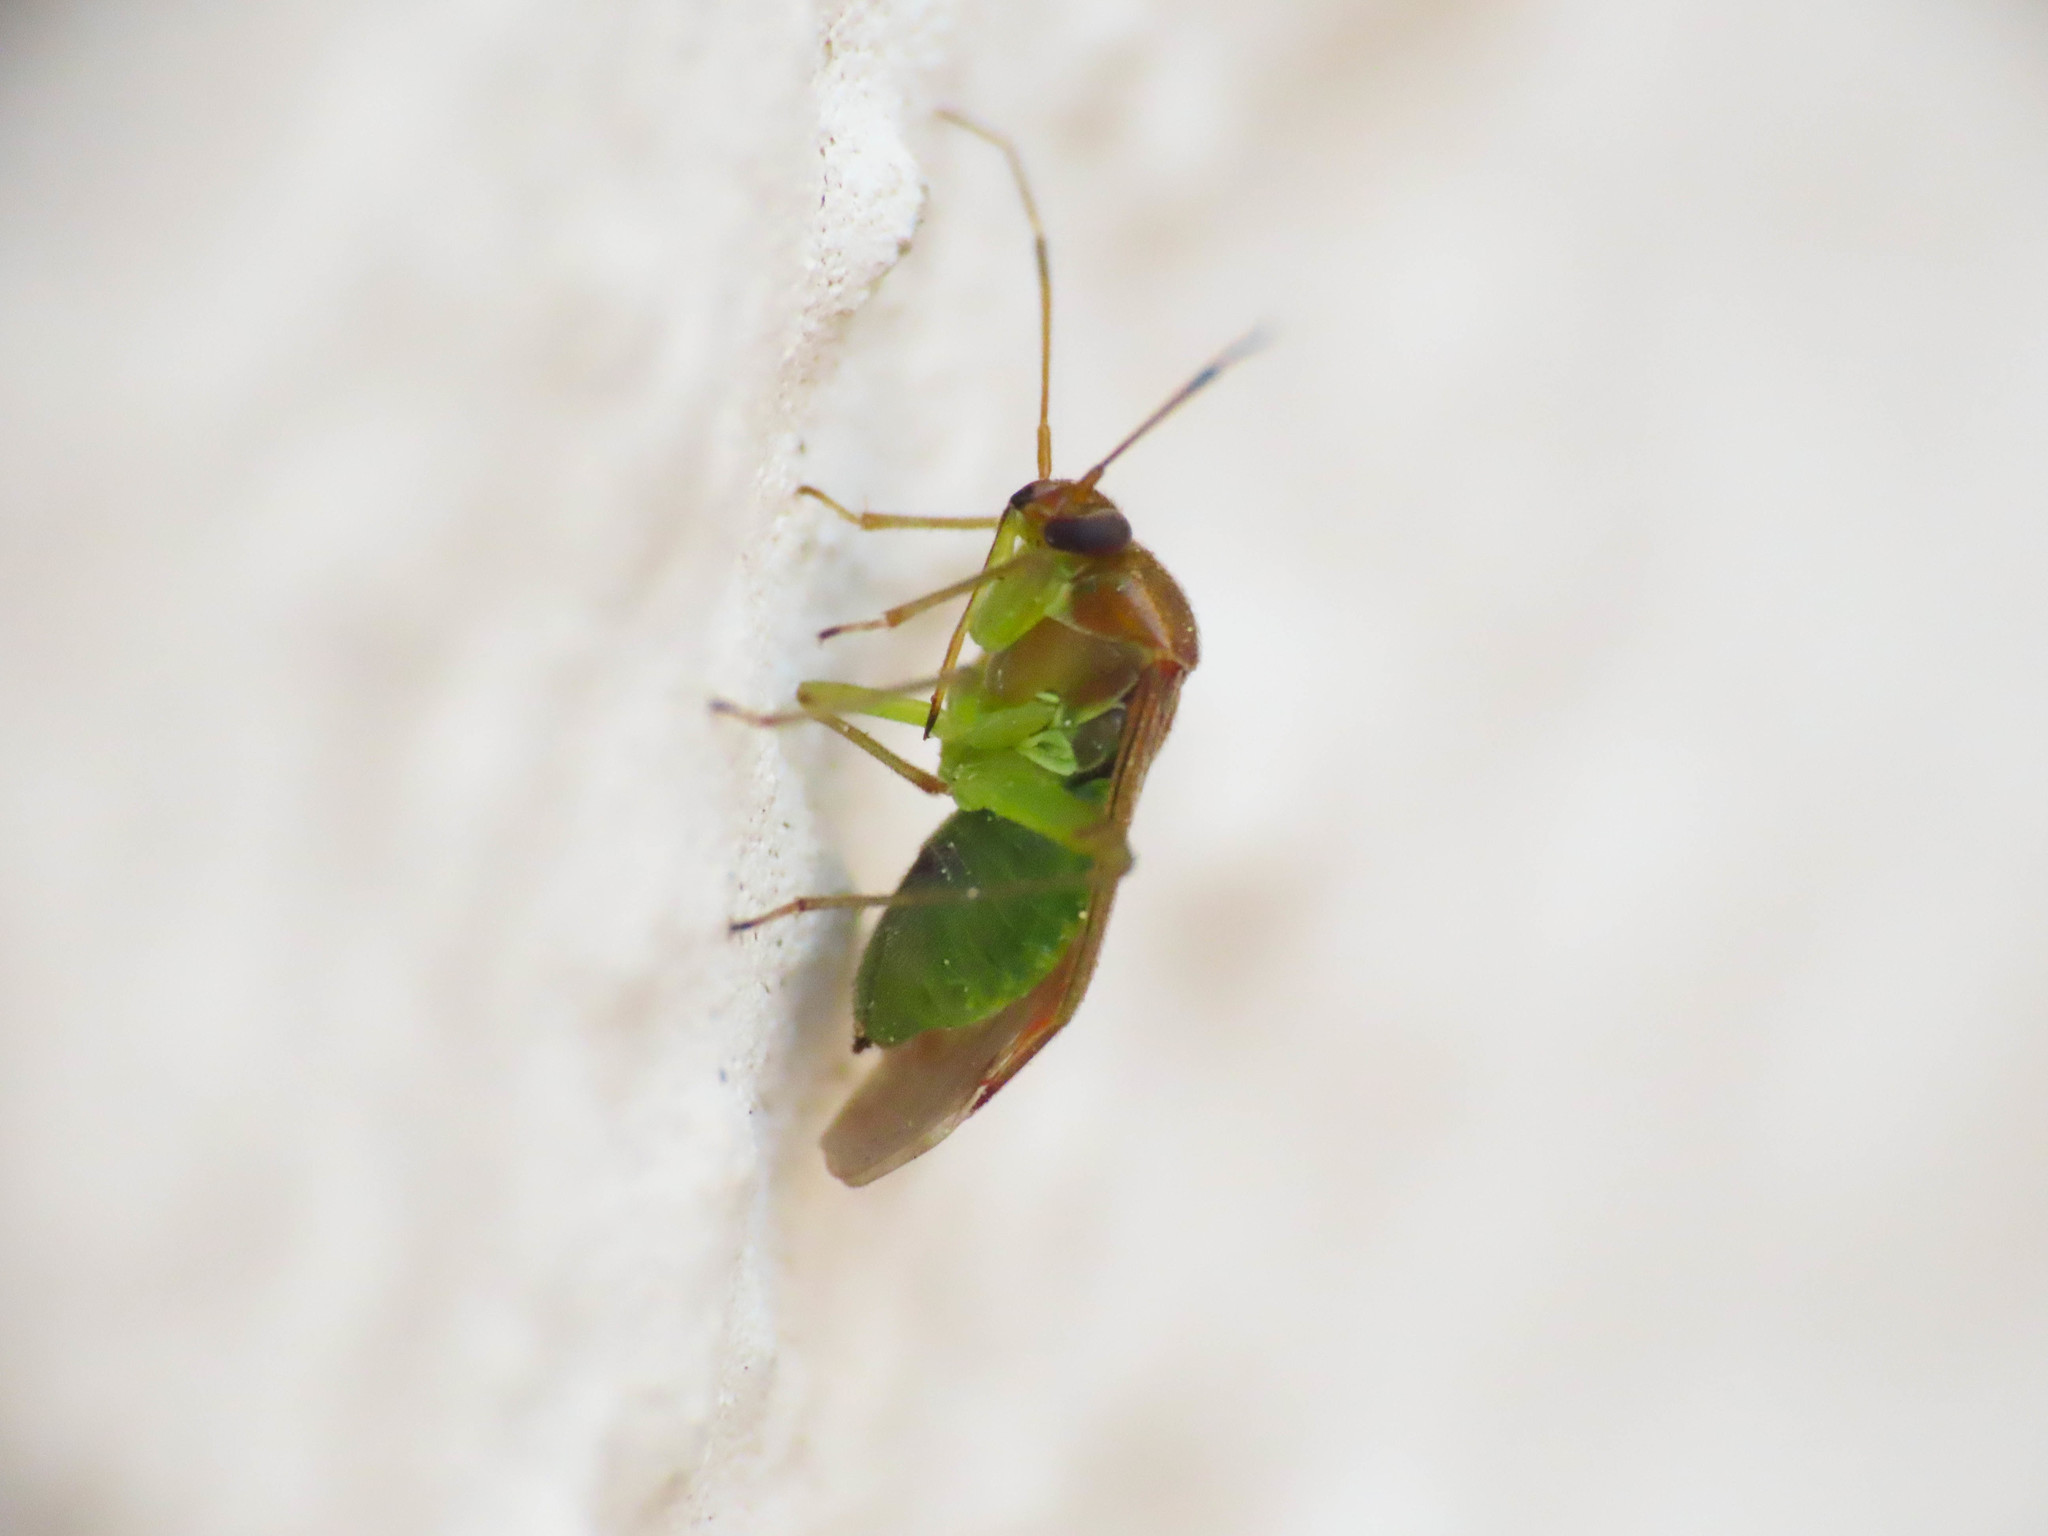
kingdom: Animalia
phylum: Arthropoda
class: Insecta
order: Hemiptera
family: Miridae
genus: Pinalitus
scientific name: Pinalitus cervinus
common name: Plant bug
